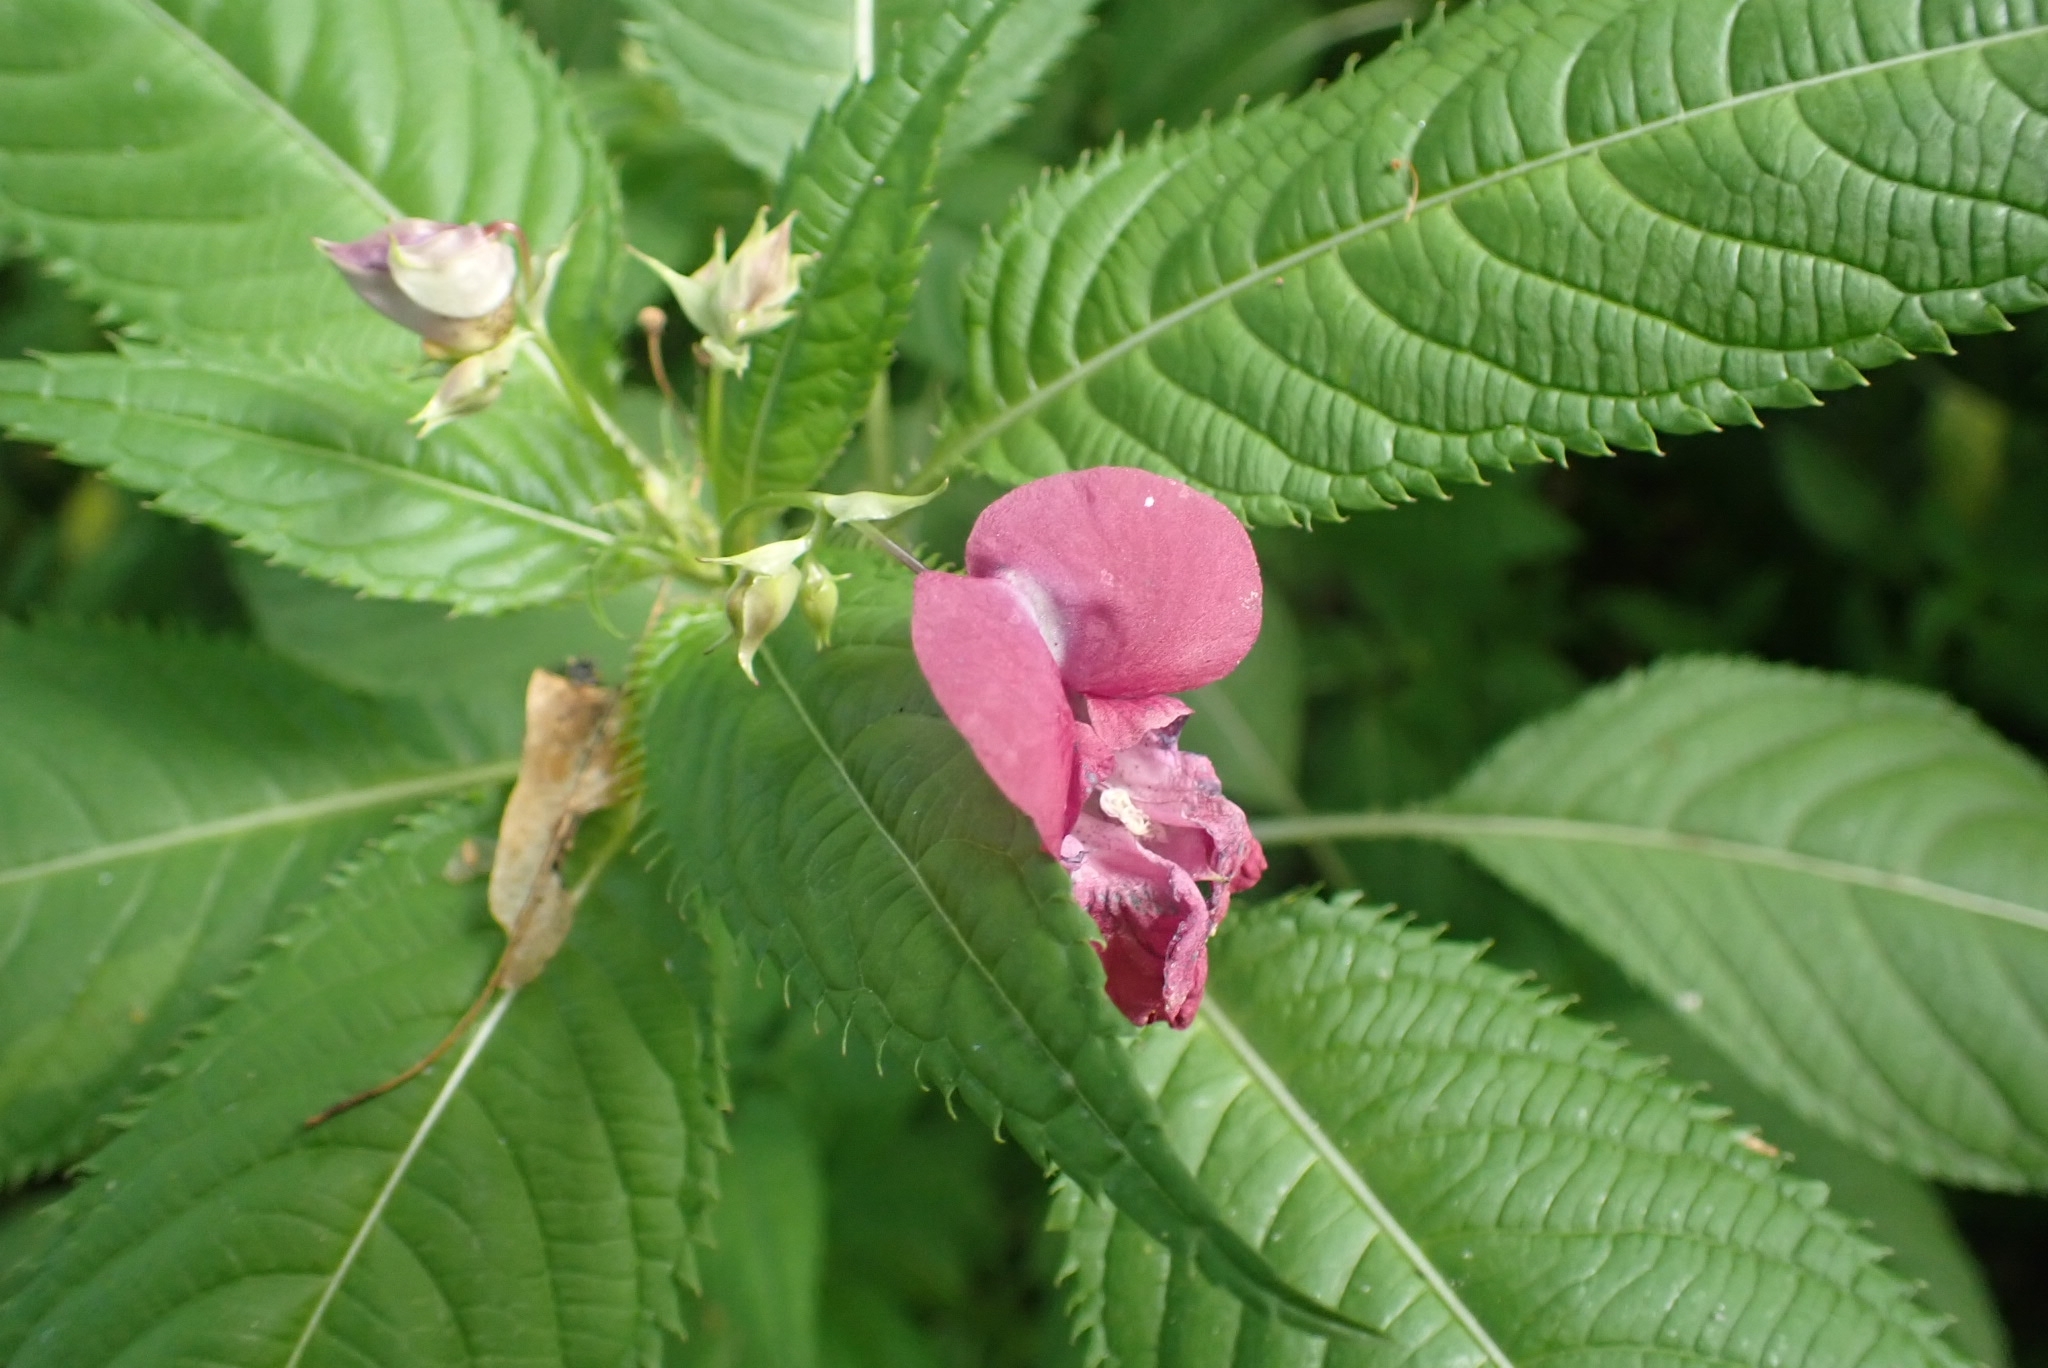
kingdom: Plantae
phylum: Tracheophyta
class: Magnoliopsida
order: Ericales
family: Balsaminaceae
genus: Impatiens
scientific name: Impatiens glandulifera
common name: Himalayan balsam
